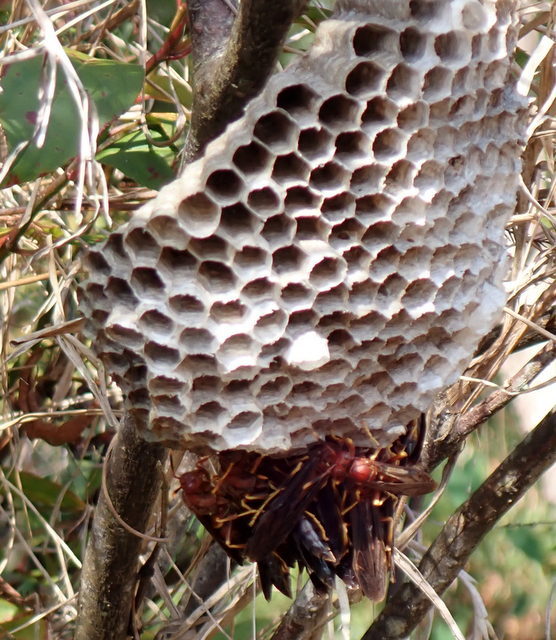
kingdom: Animalia
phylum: Arthropoda
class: Insecta
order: Hymenoptera
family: Eumenidae
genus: Polistes
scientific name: Polistes annularis
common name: Ringed paper wasp
